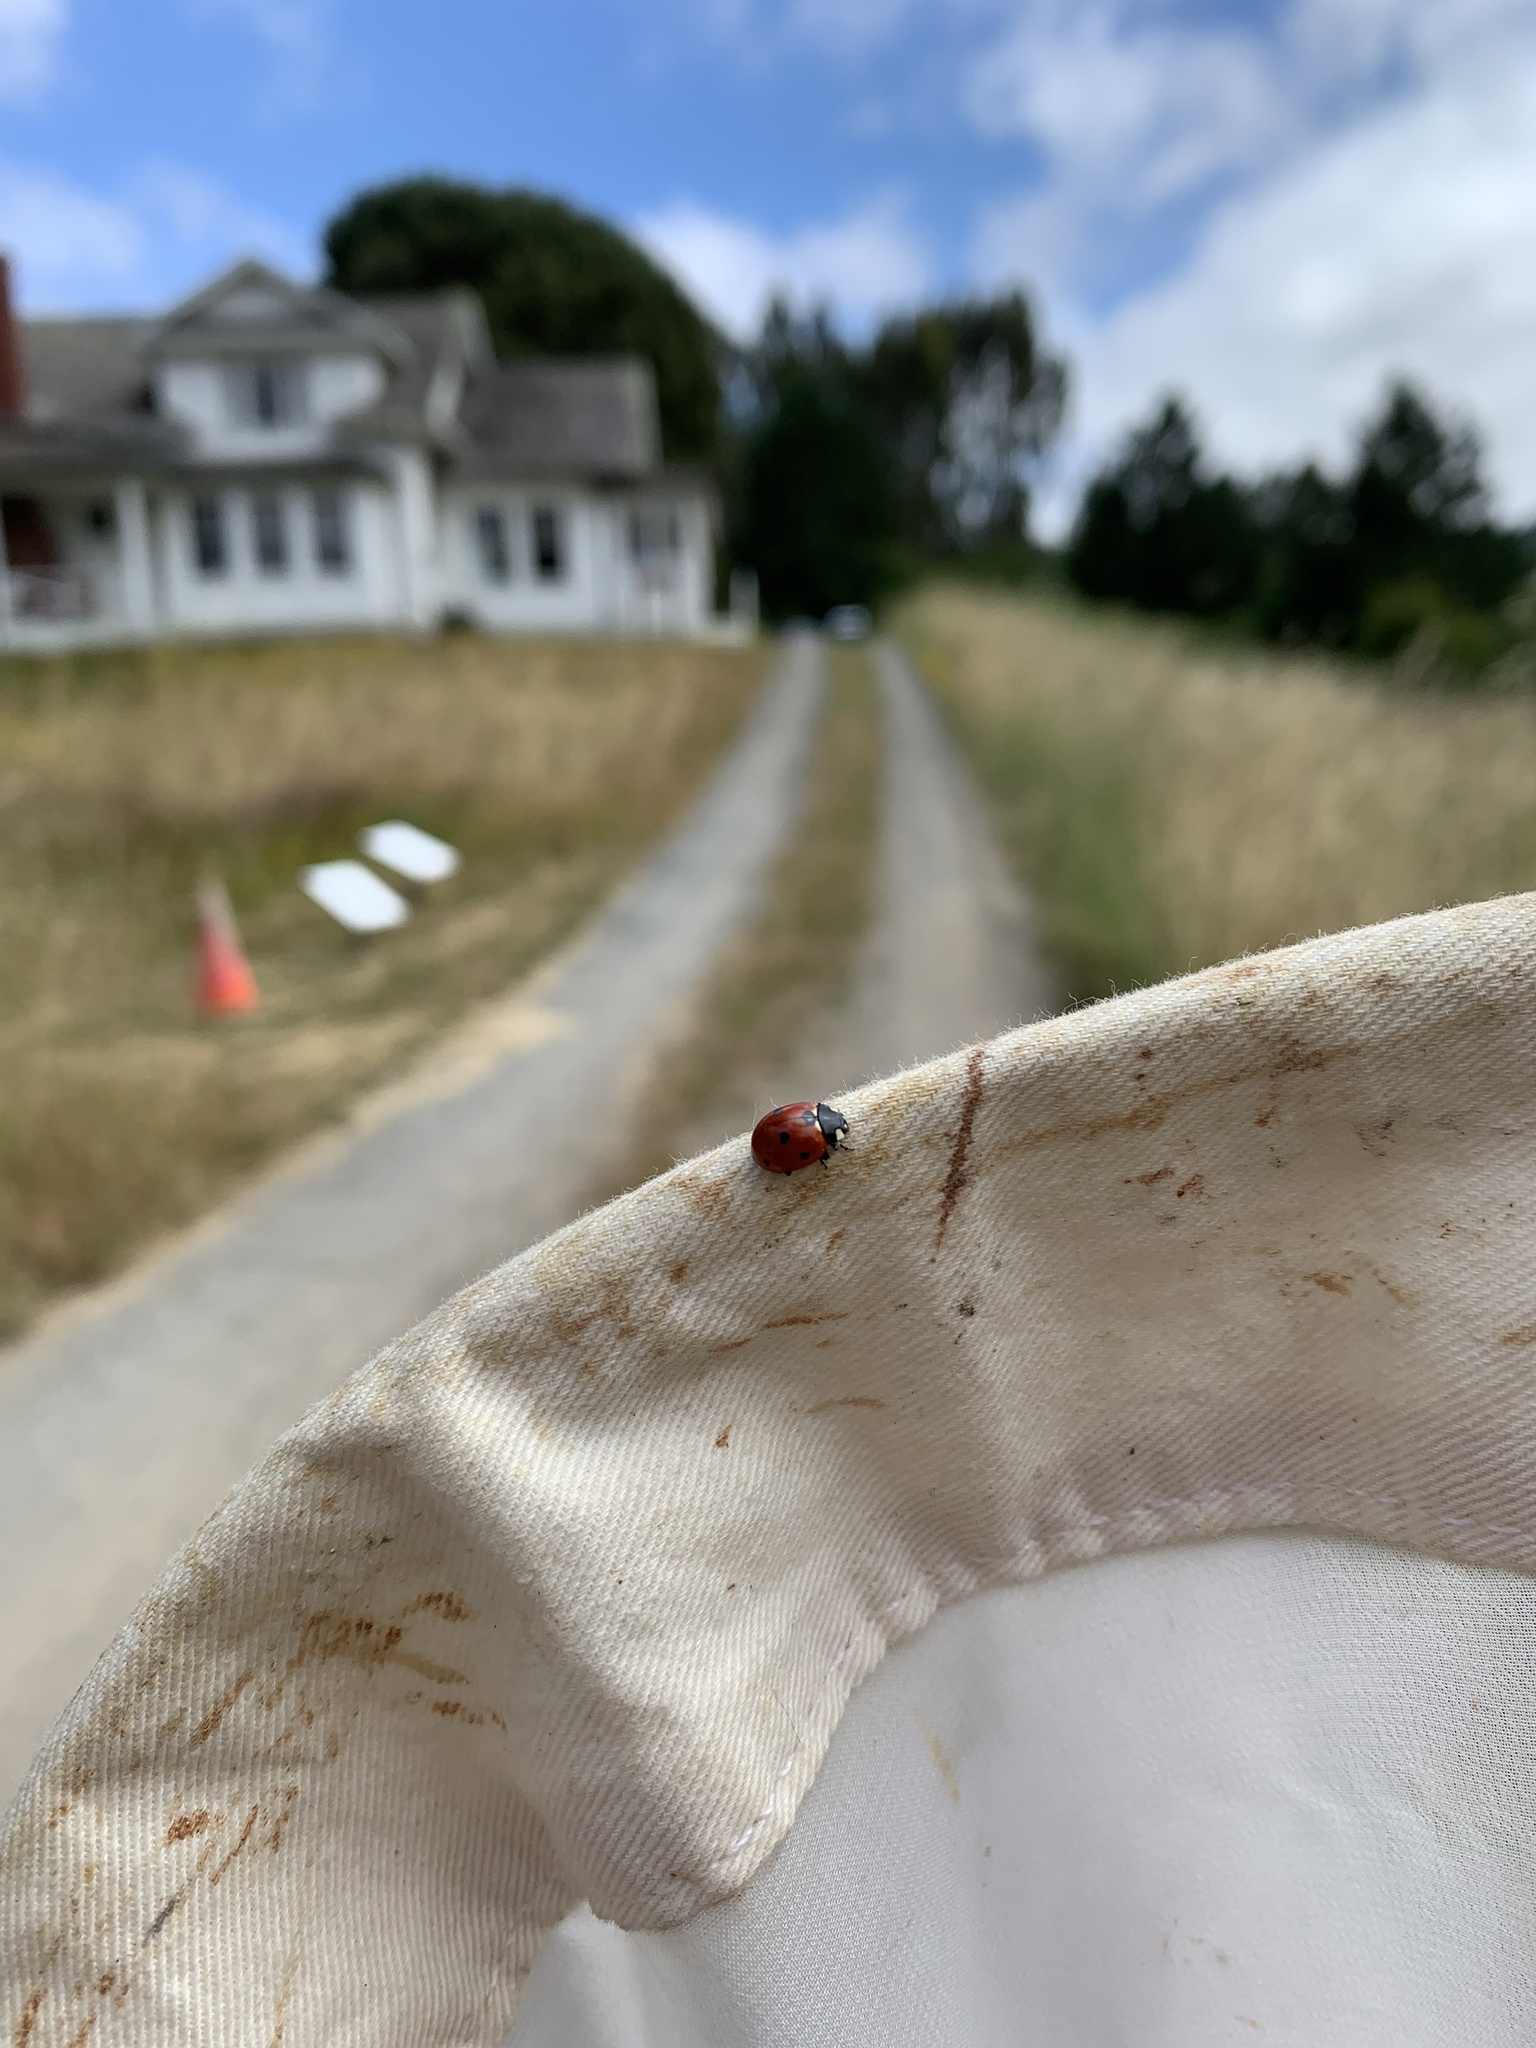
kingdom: Animalia
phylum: Arthropoda
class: Insecta
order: Coleoptera
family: Coccinellidae
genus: Coccinella
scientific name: Coccinella septempunctata
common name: Sevenspotted lady beetle
